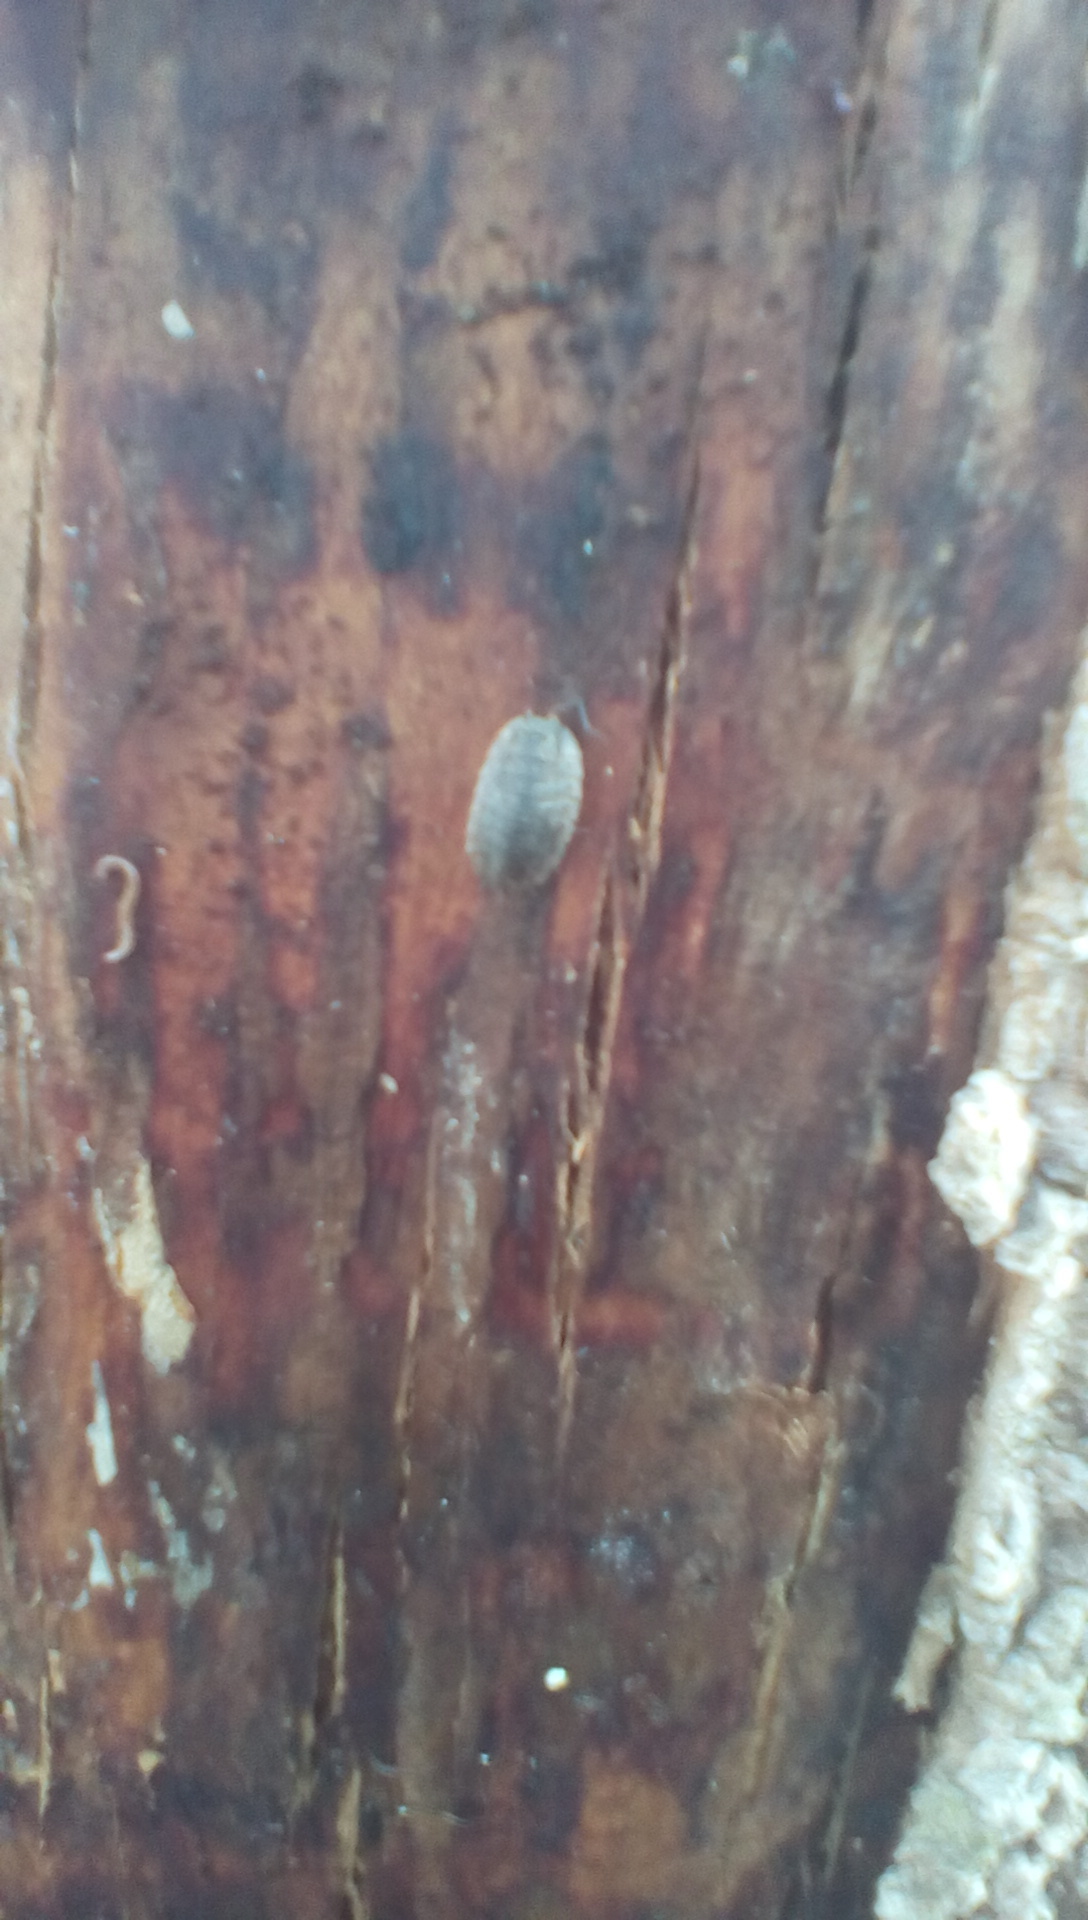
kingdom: Animalia
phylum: Arthropoda
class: Malacostraca
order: Isopoda
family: Oniscidae
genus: Oniscus
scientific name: Oniscus asellus
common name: Common shiny woodlouse
